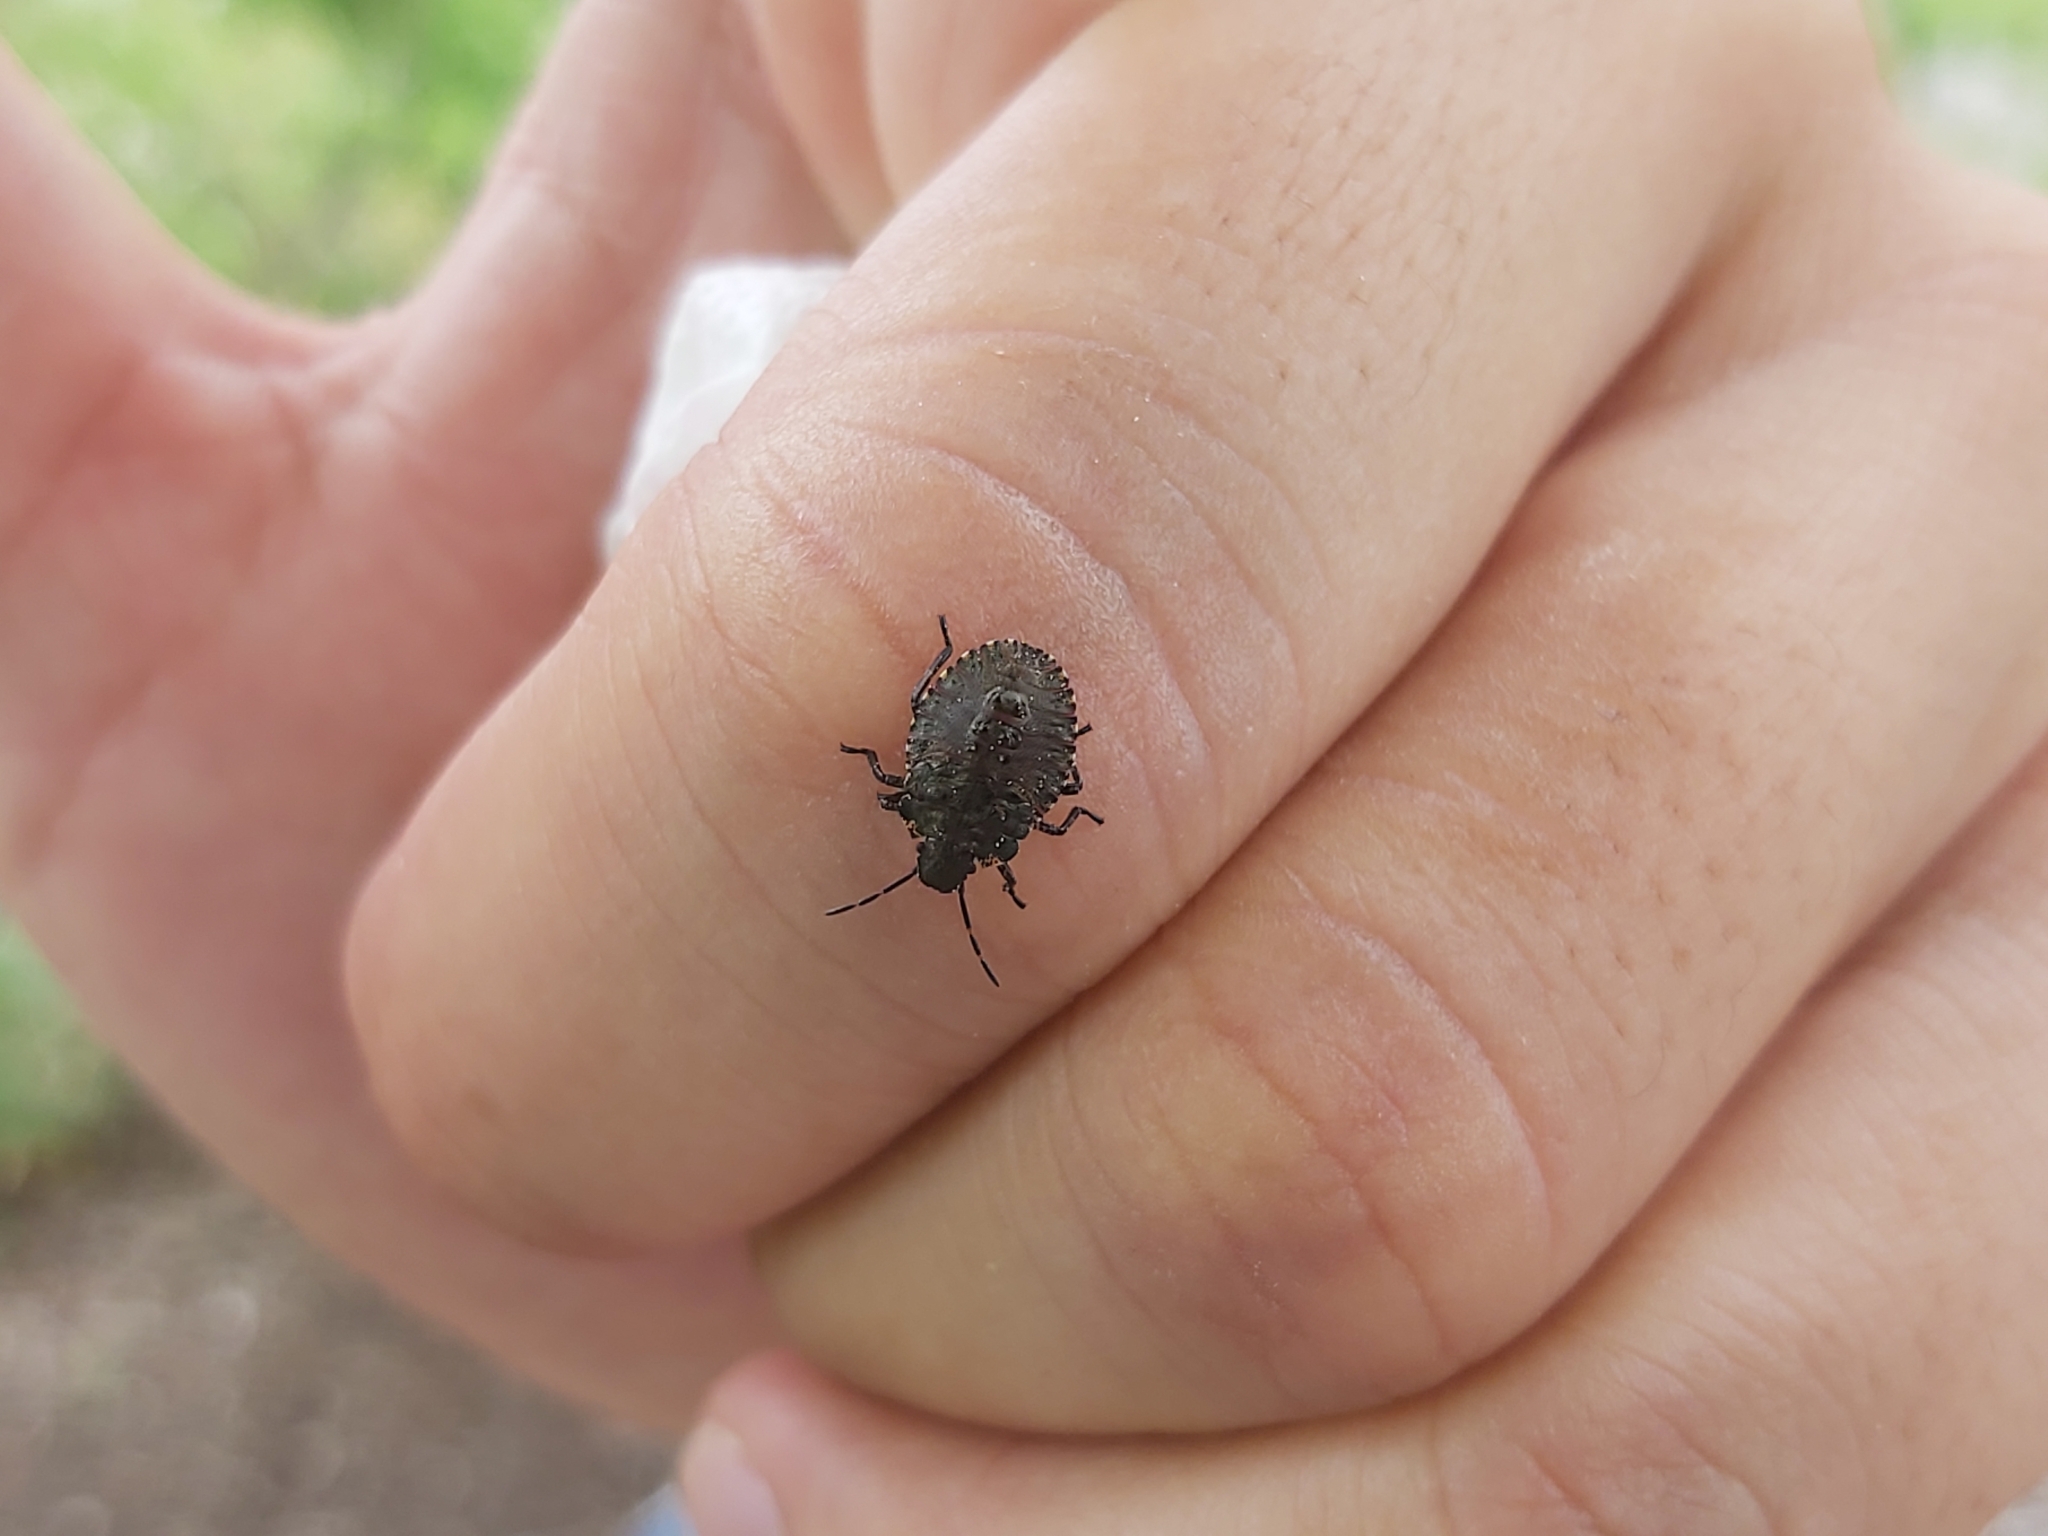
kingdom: Animalia
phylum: Arthropoda
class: Insecta
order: Hemiptera
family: Pentatomidae
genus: Pentatoma
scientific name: Pentatoma rufipes
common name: Forest bug
